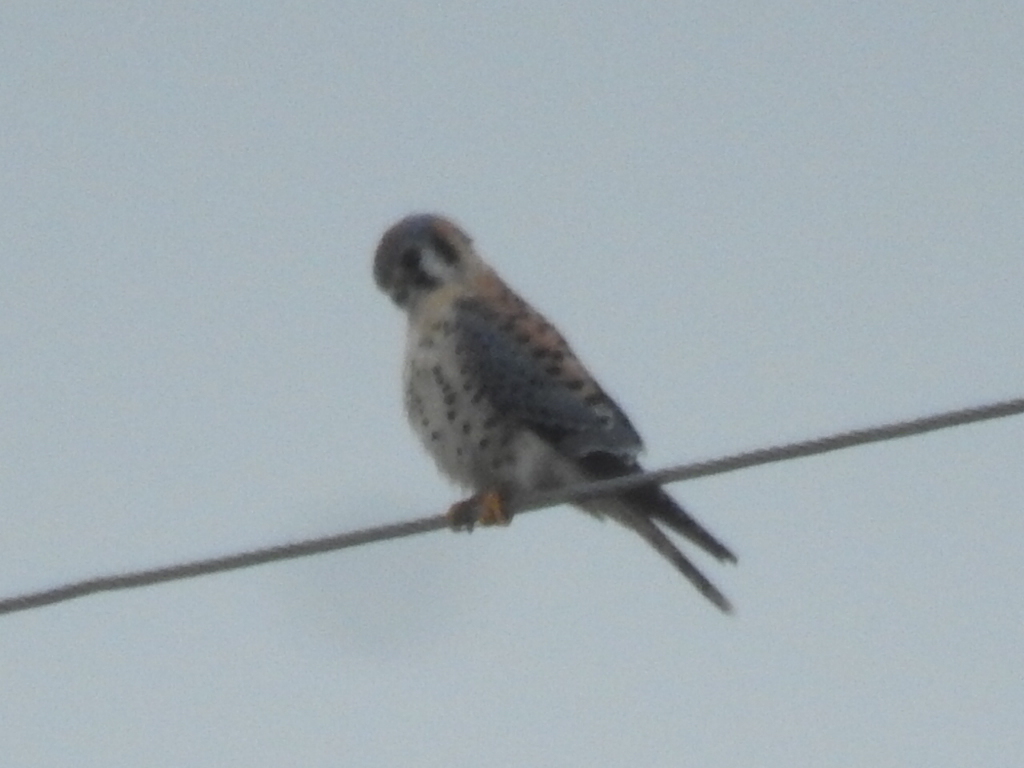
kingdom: Animalia
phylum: Chordata
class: Aves
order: Falconiformes
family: Falconidae
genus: Falco
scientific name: Falco sparverius
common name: American kestrel
